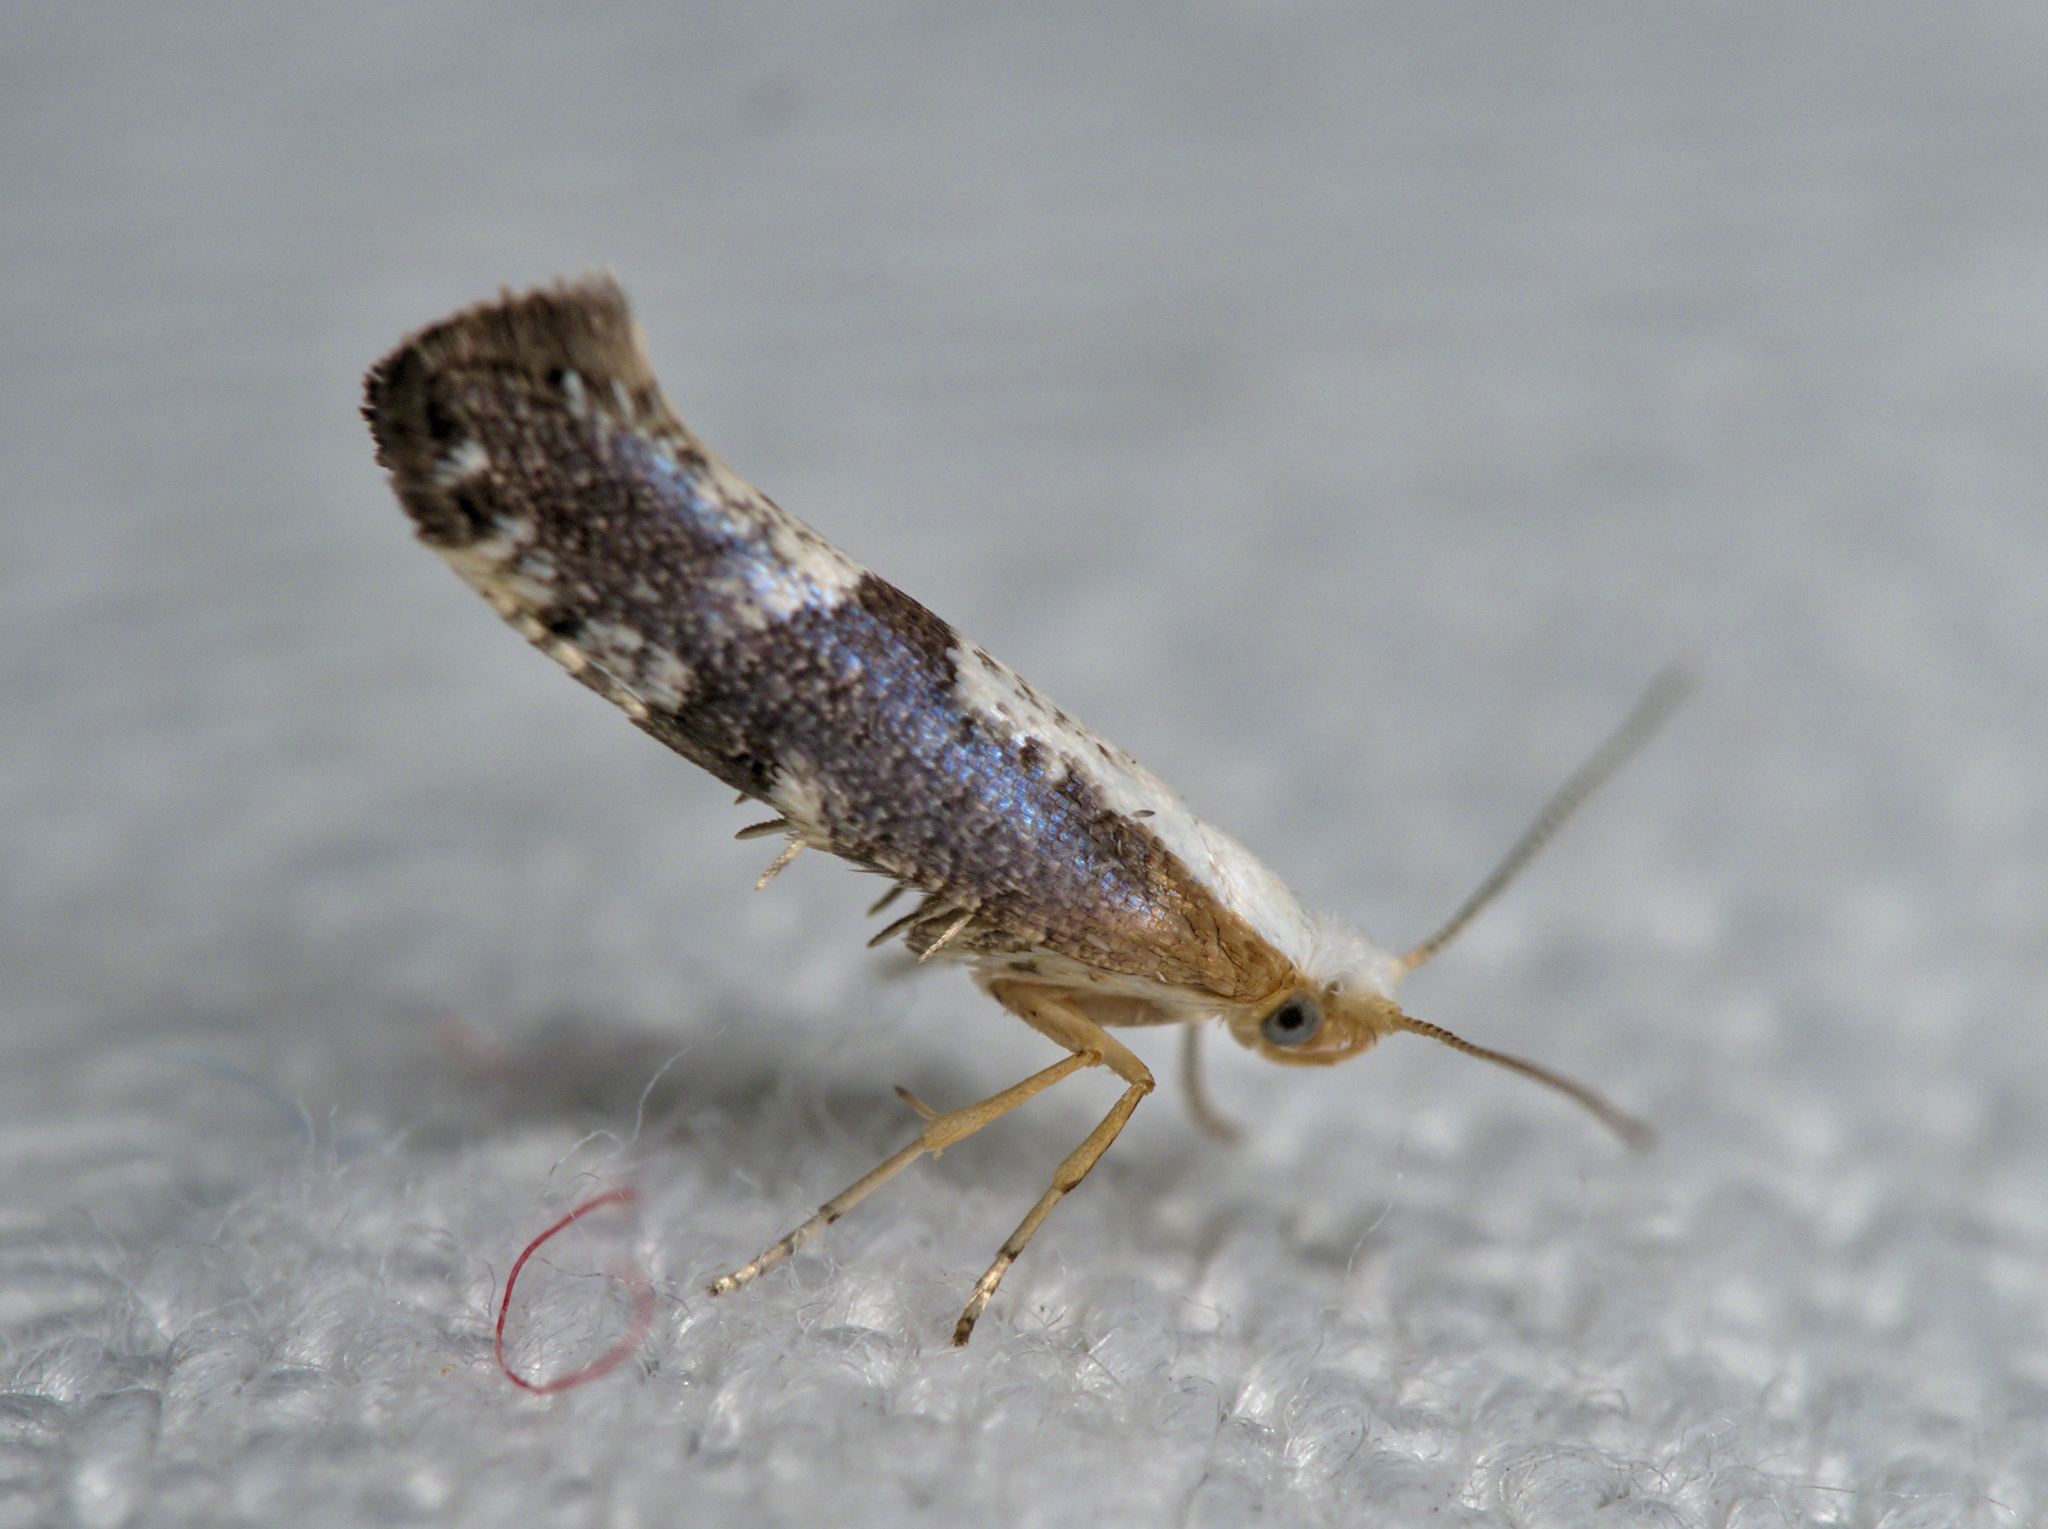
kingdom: Animalia
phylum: Arthropoda
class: Insecta
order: Lepidoptera
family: Argyresthiidae
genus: Argyresthia
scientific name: Argyresthia spinosella
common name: Blackthorn argent
